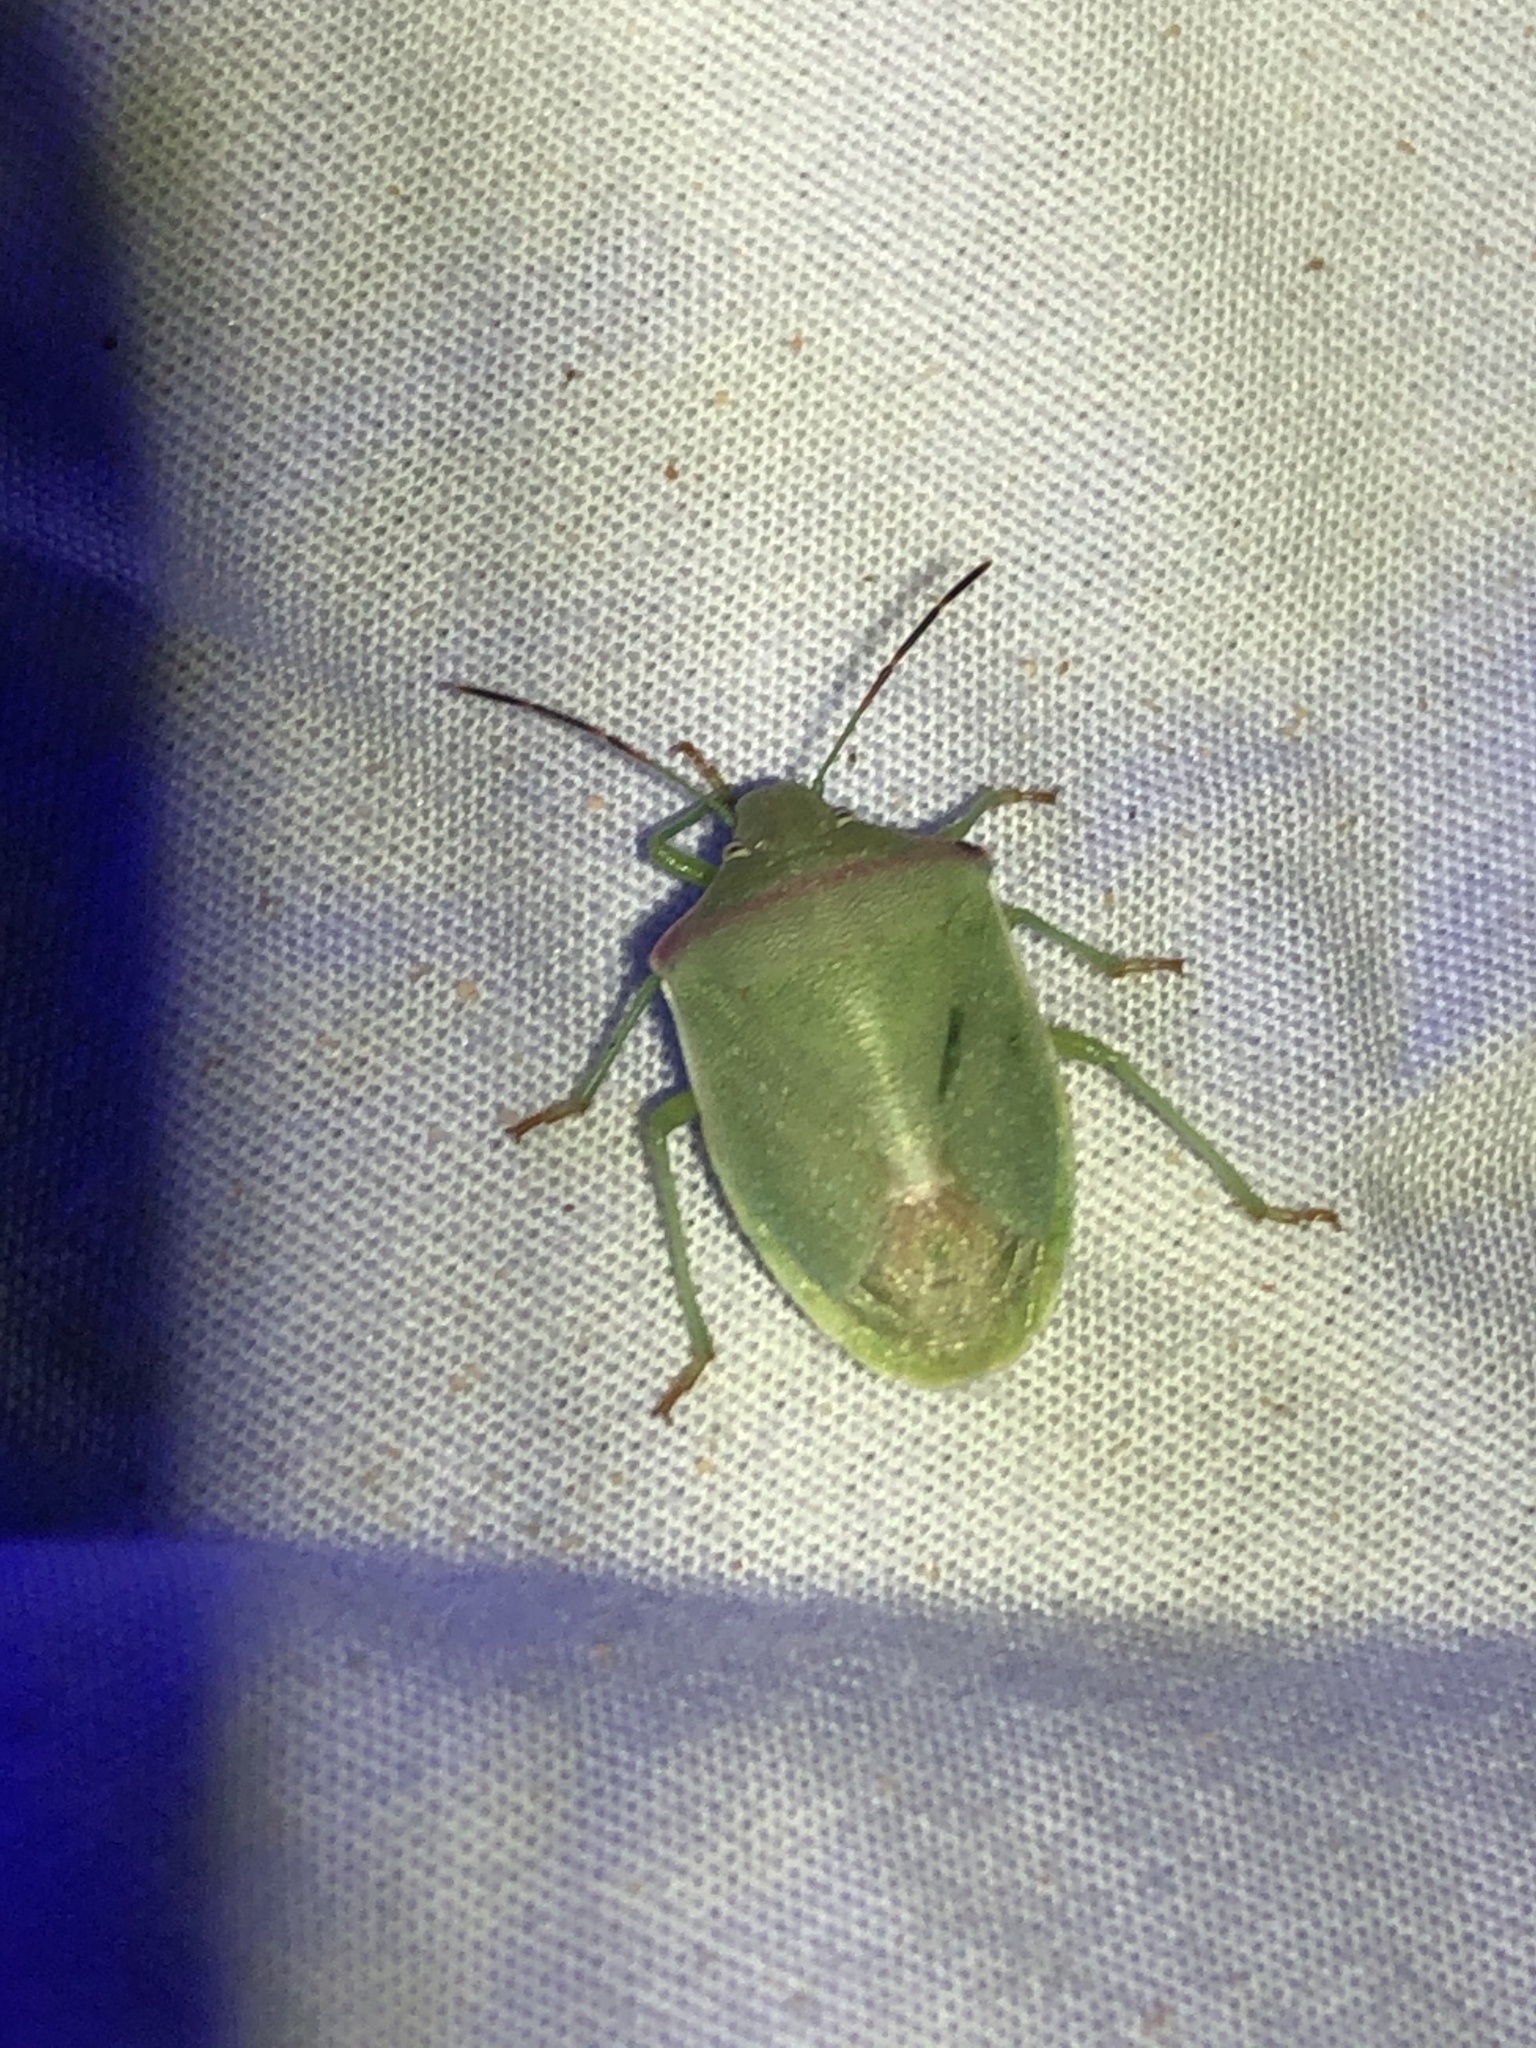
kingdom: Animalia
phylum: Arthropoda
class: Insecta
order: Hemiptera
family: Pentatomidae
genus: Thyanta
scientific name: Thyanta custator
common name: Stink bug
